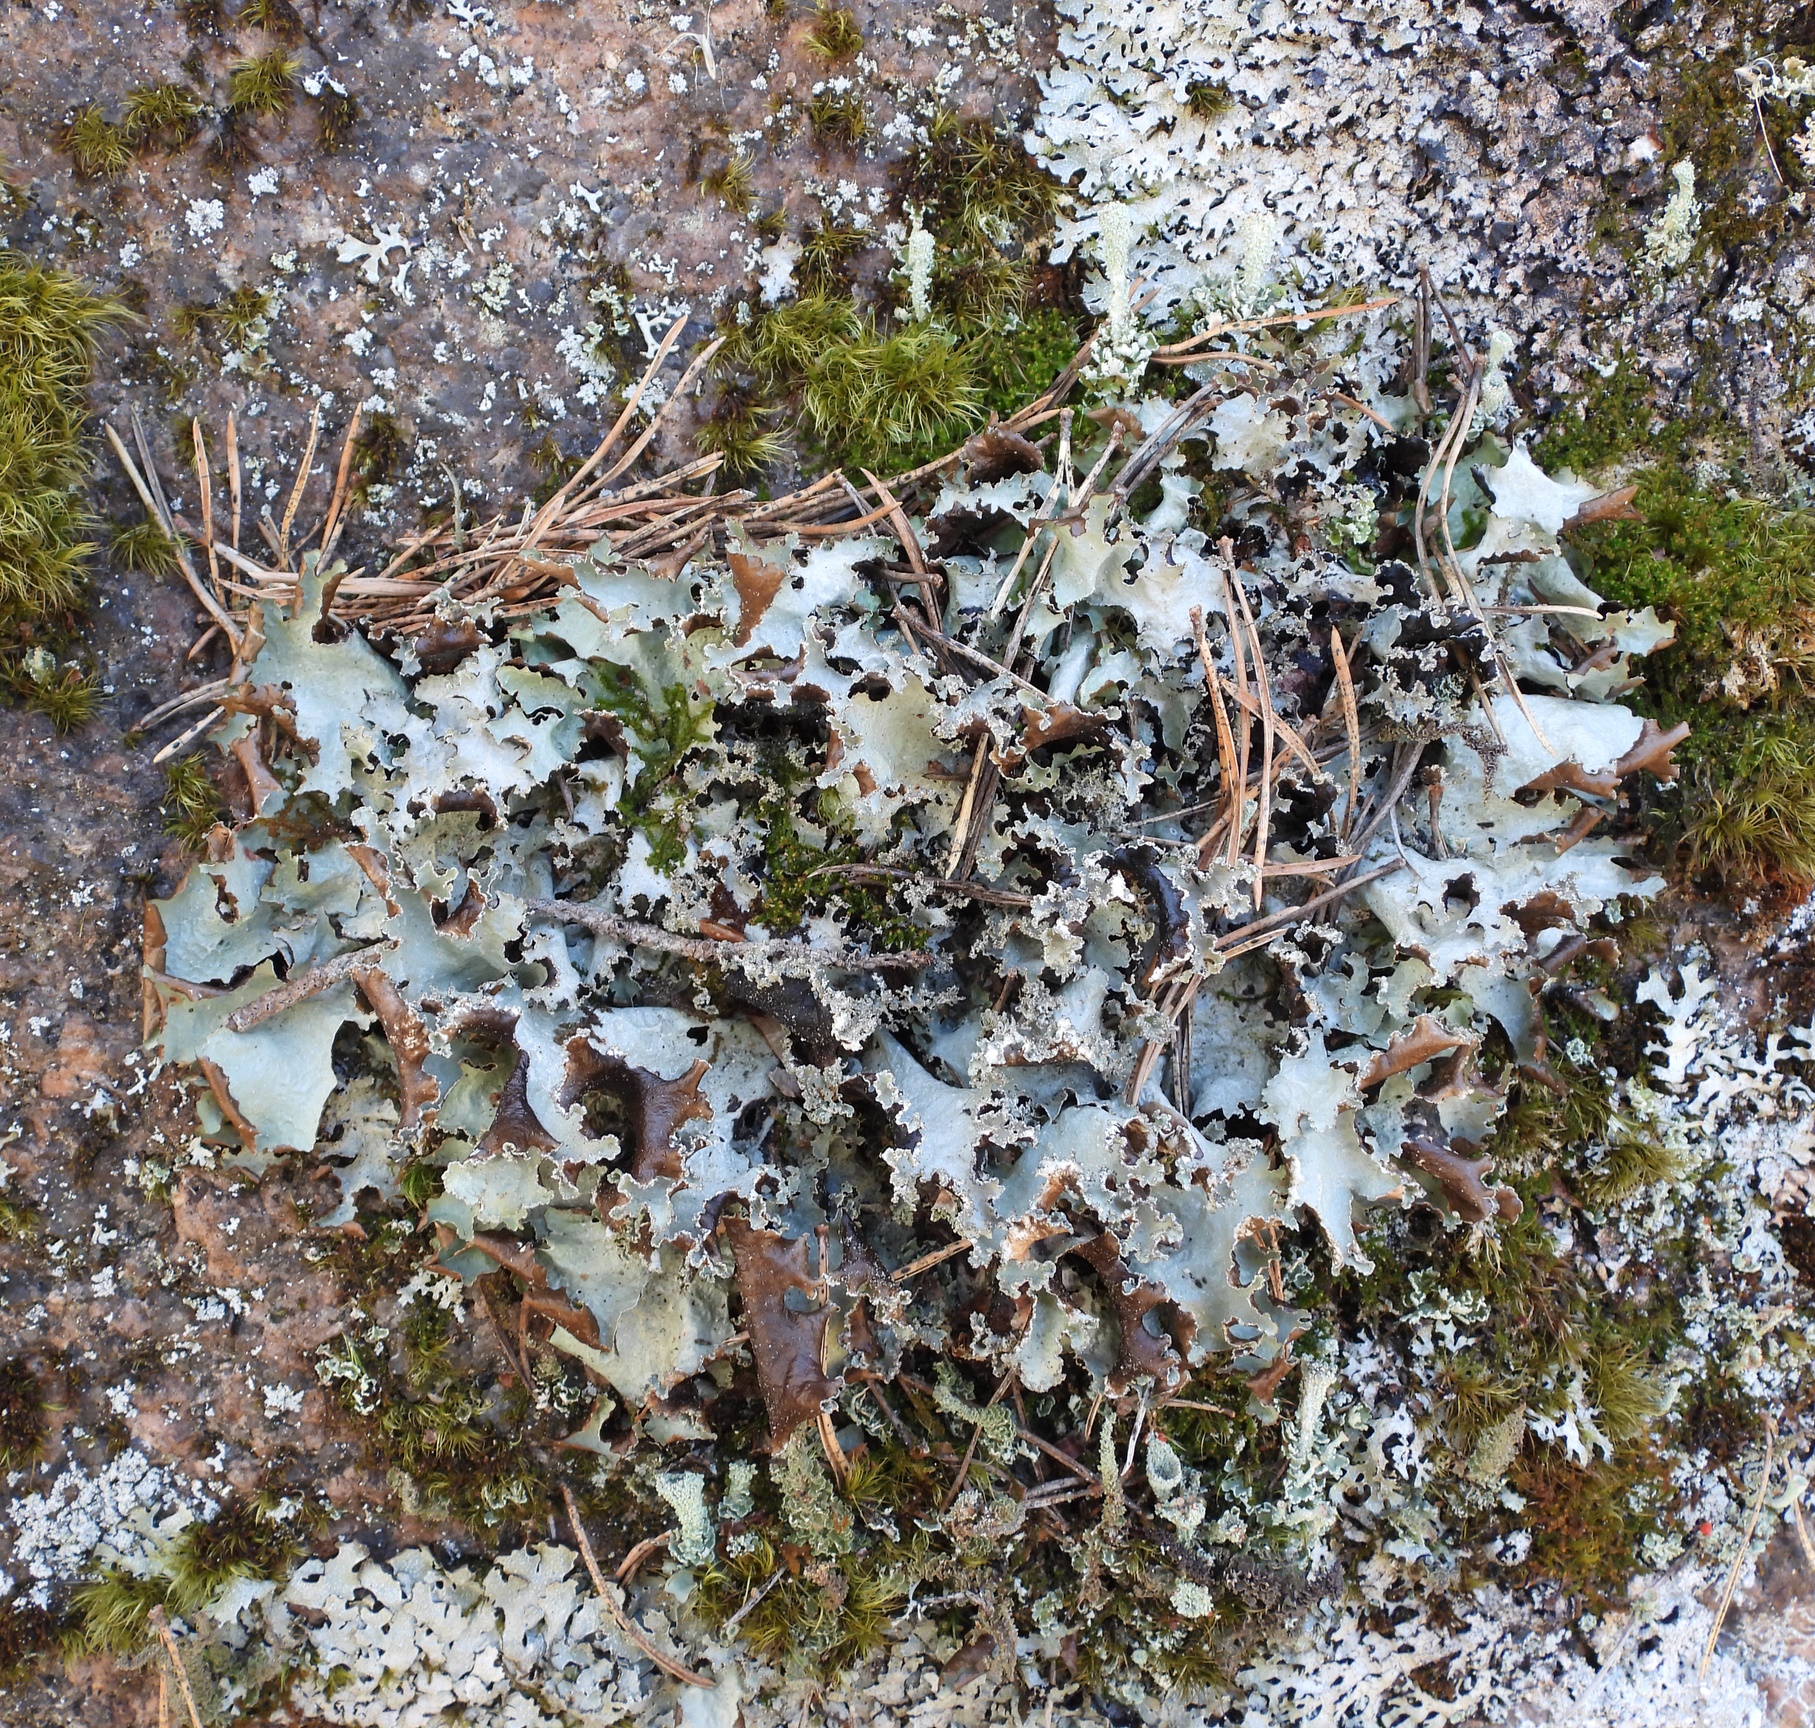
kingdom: Fungi
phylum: Ascomycota
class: Lecanoromycetes
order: Lecanorales
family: Parmeliaceae
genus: Platismatia
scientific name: Platismatia glauca
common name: Varied rag lichen
